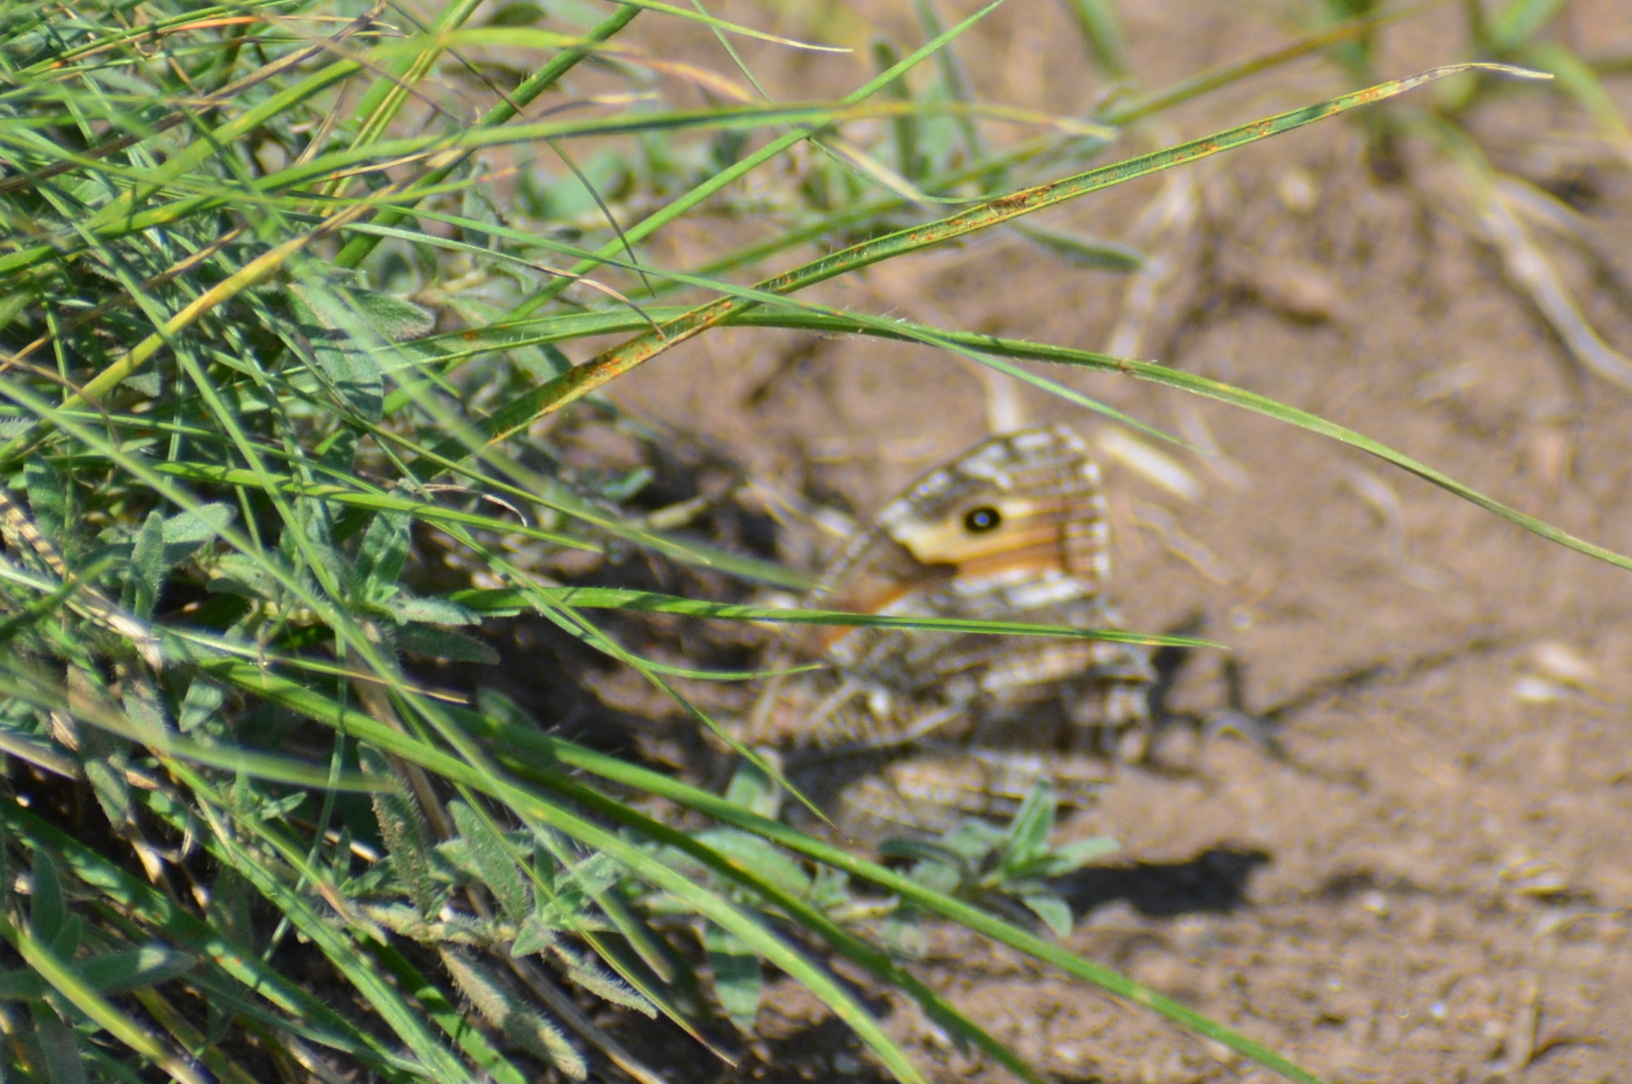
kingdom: Animalia
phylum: Arthropoda
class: Insecta
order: Lepidoptera
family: Nymphalidae
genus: Hipparchia
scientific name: Hipparchia semele
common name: Grayling
